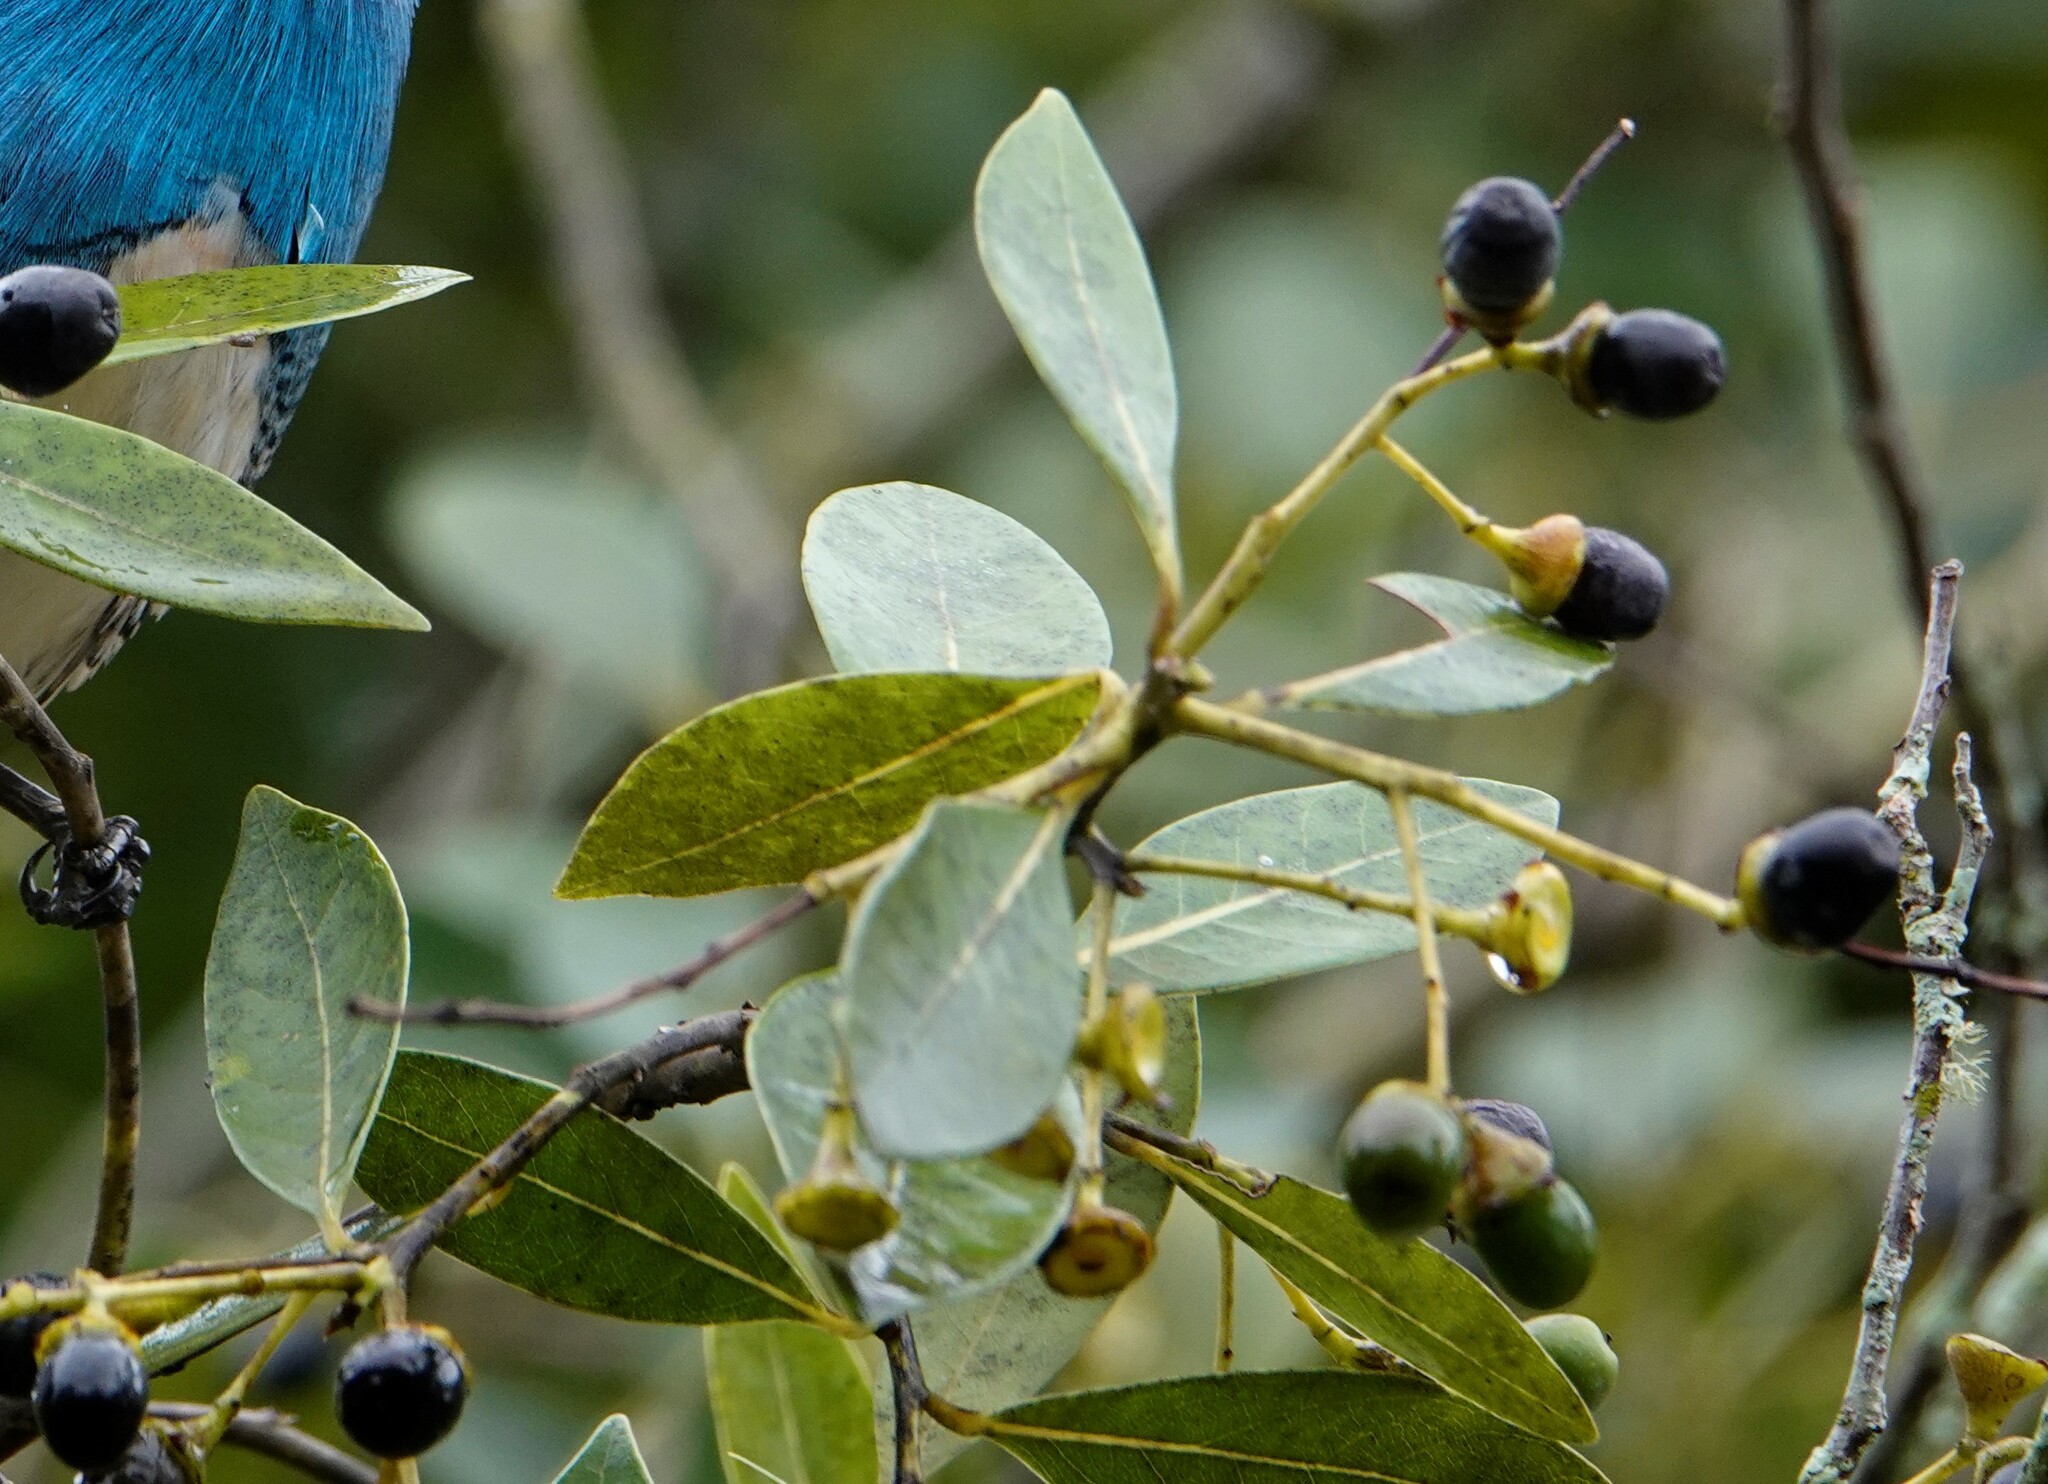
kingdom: Plantae
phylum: Tracheophyta
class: Magnoliopsida
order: Laurales
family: Lauraceae
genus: Mespilodaphne
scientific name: Mespilodaphne pulchella
